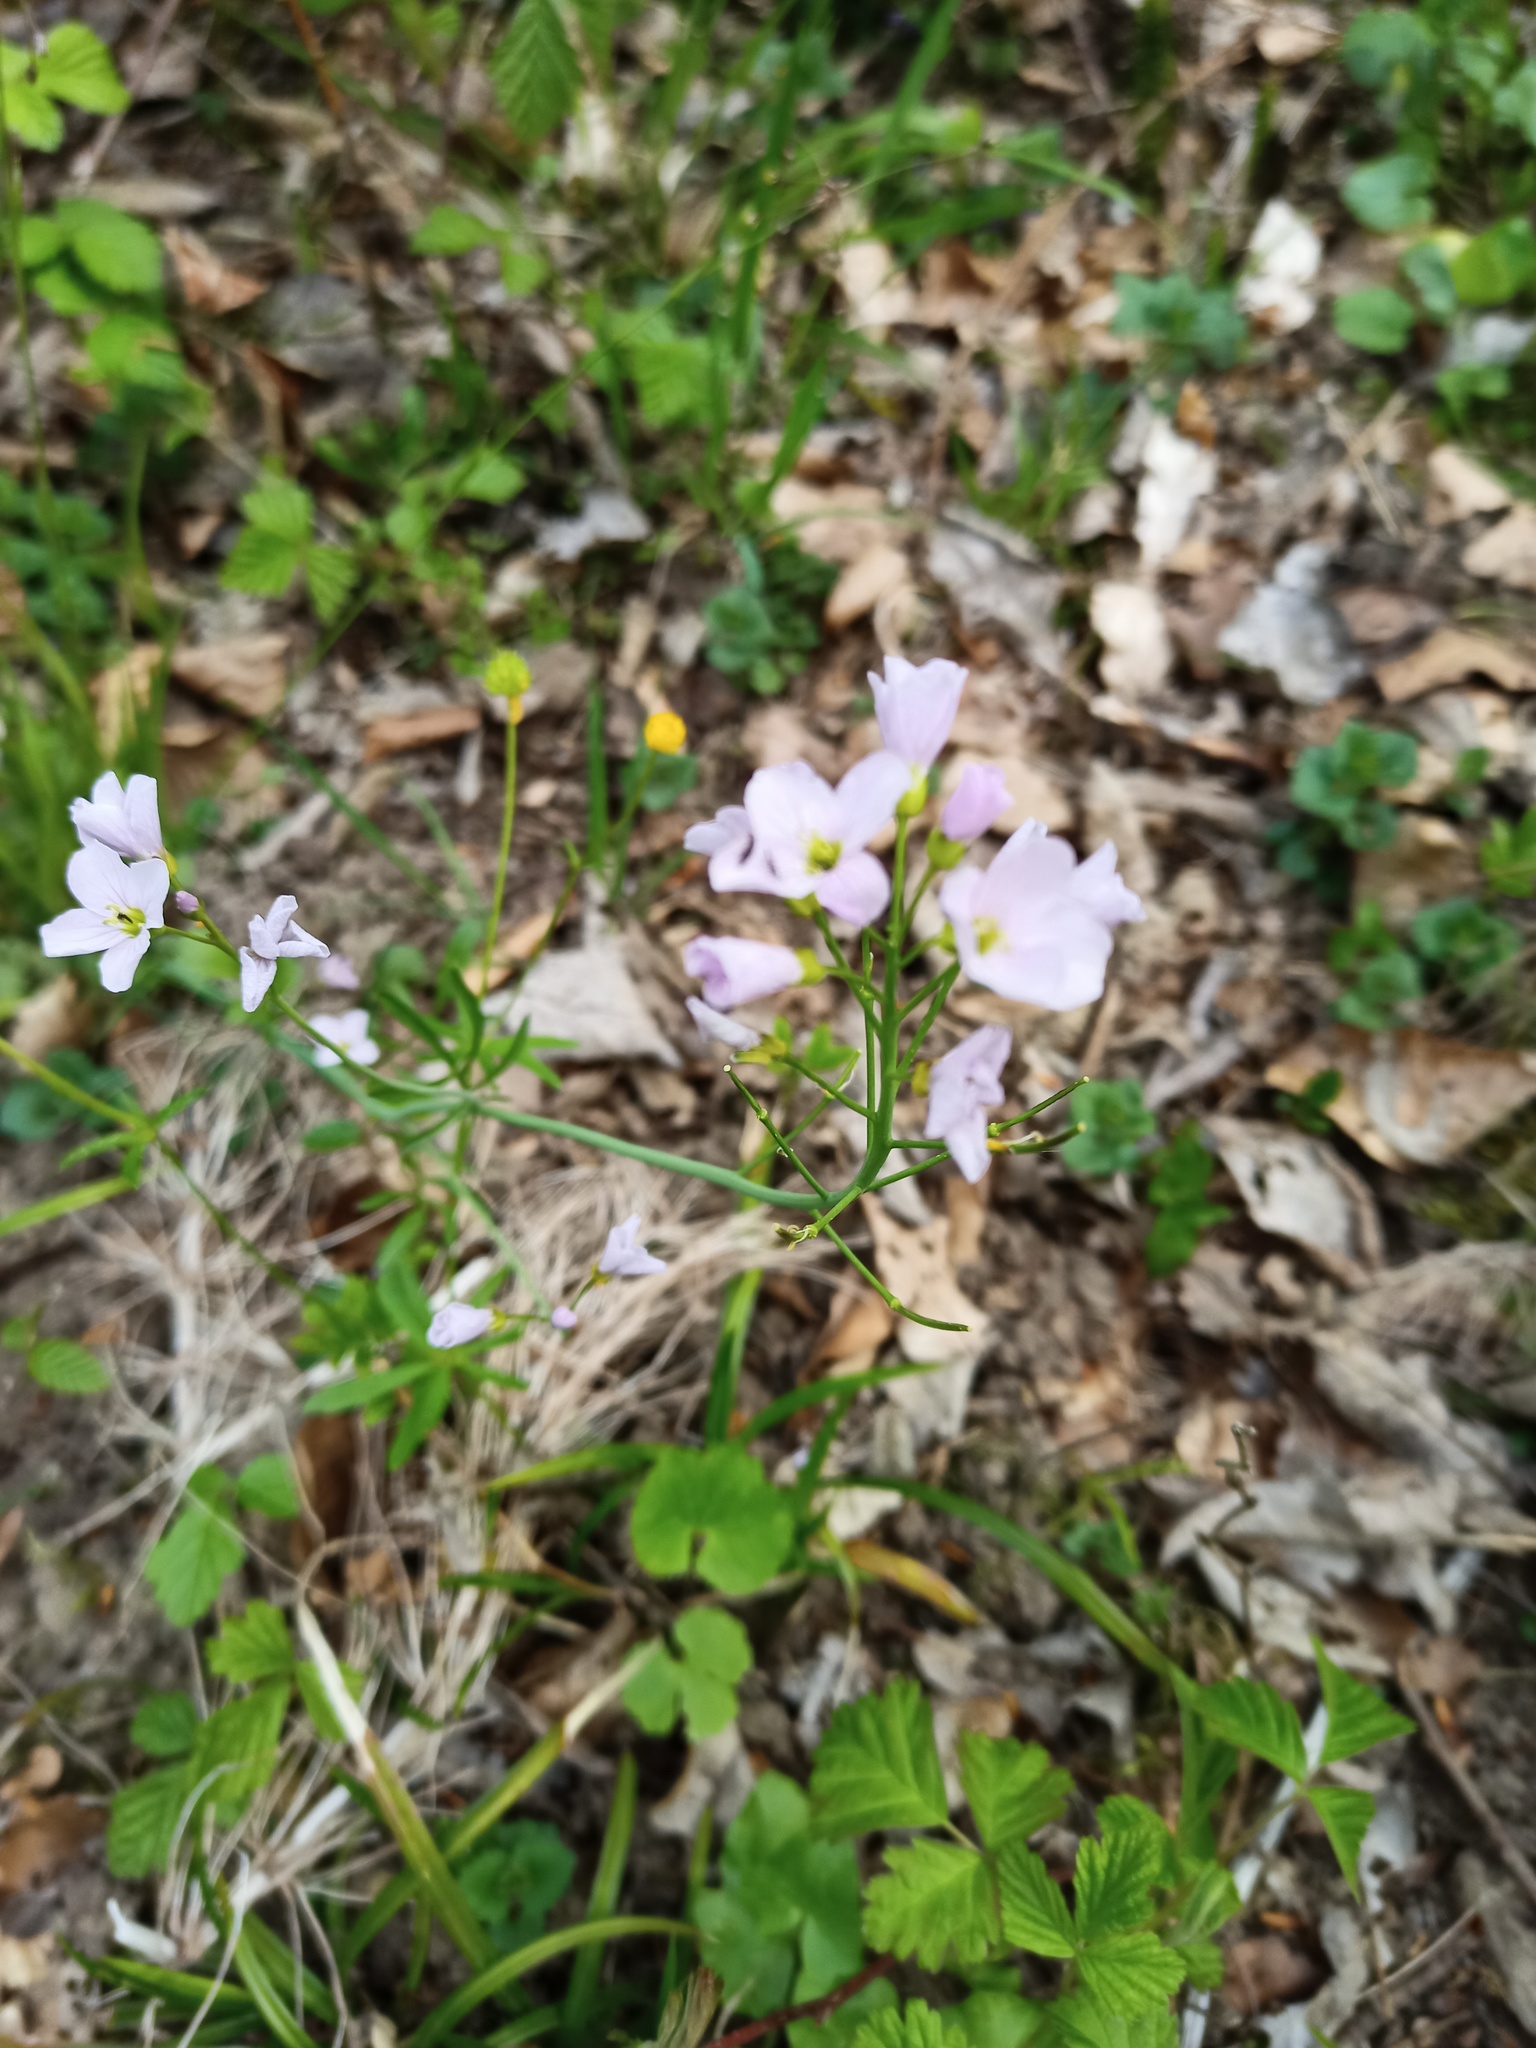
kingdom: Plantae
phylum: Tracheophyta
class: Magnoliopsida
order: Brassicales
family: Brassicaceae
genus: Cardamine
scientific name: Cardamine pratensis
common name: Cuckoo flower
